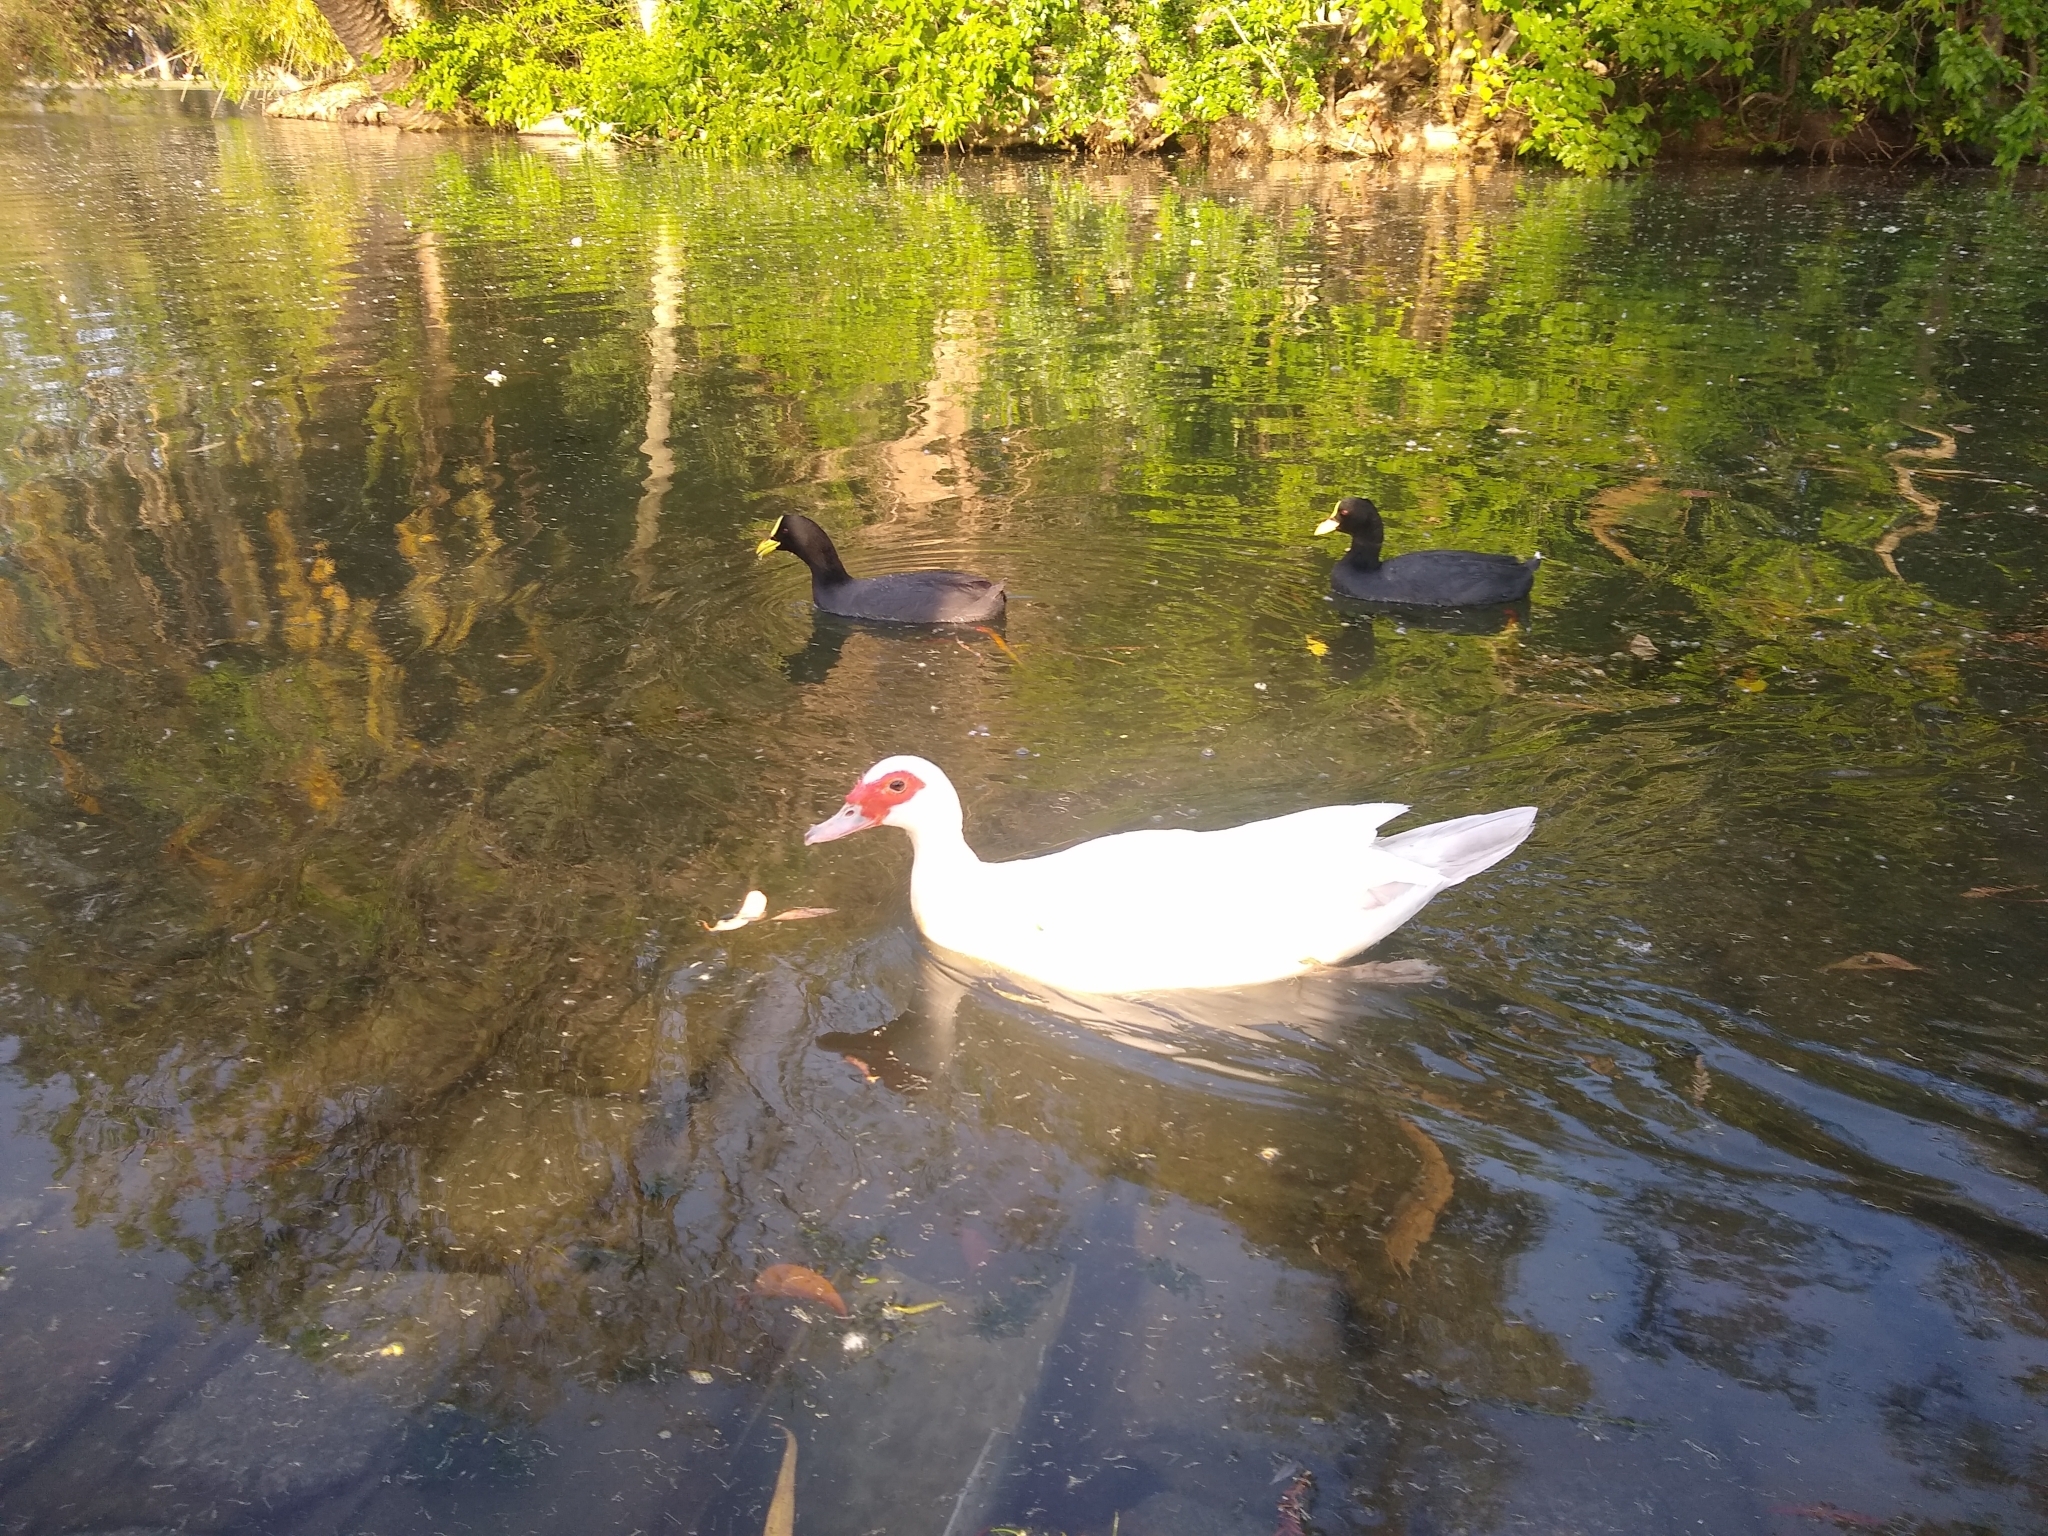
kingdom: Animalia
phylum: Chordata
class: Aves
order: Anseriformes
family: Anatidae
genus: Cairina
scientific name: Cairina moschata
